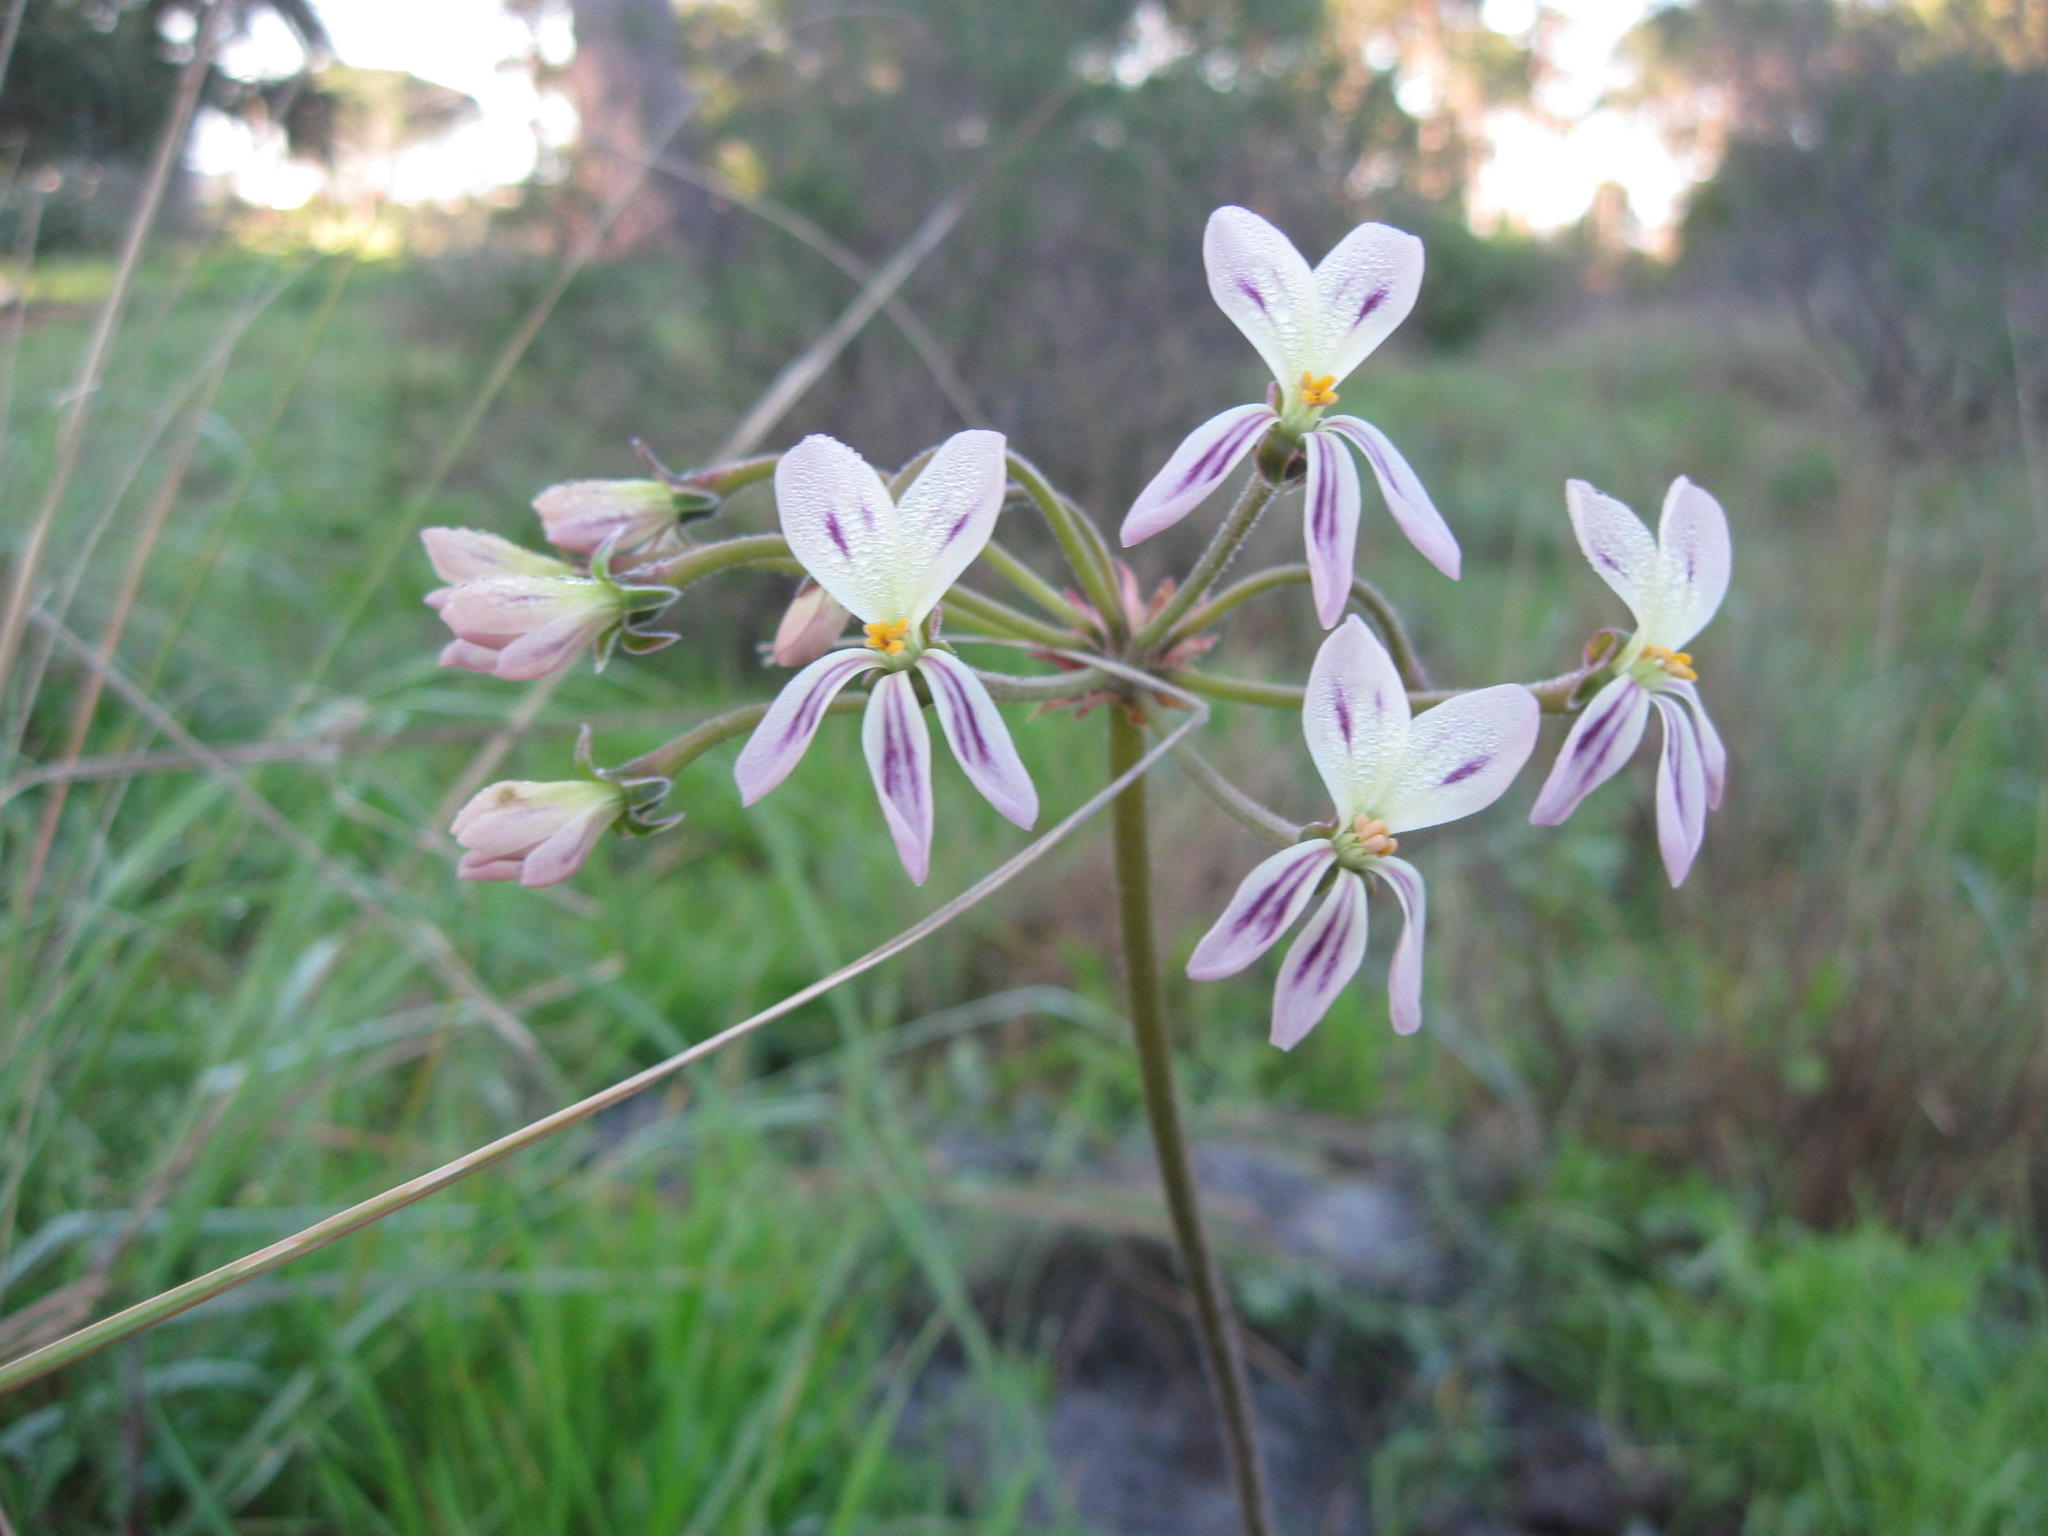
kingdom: Plantae
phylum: Tracheophyta
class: Magnoliopsida
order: Geraniales
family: Geraniaceae
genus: Pelargonium
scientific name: Pelargonium triste
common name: Night-scent pelargonium
